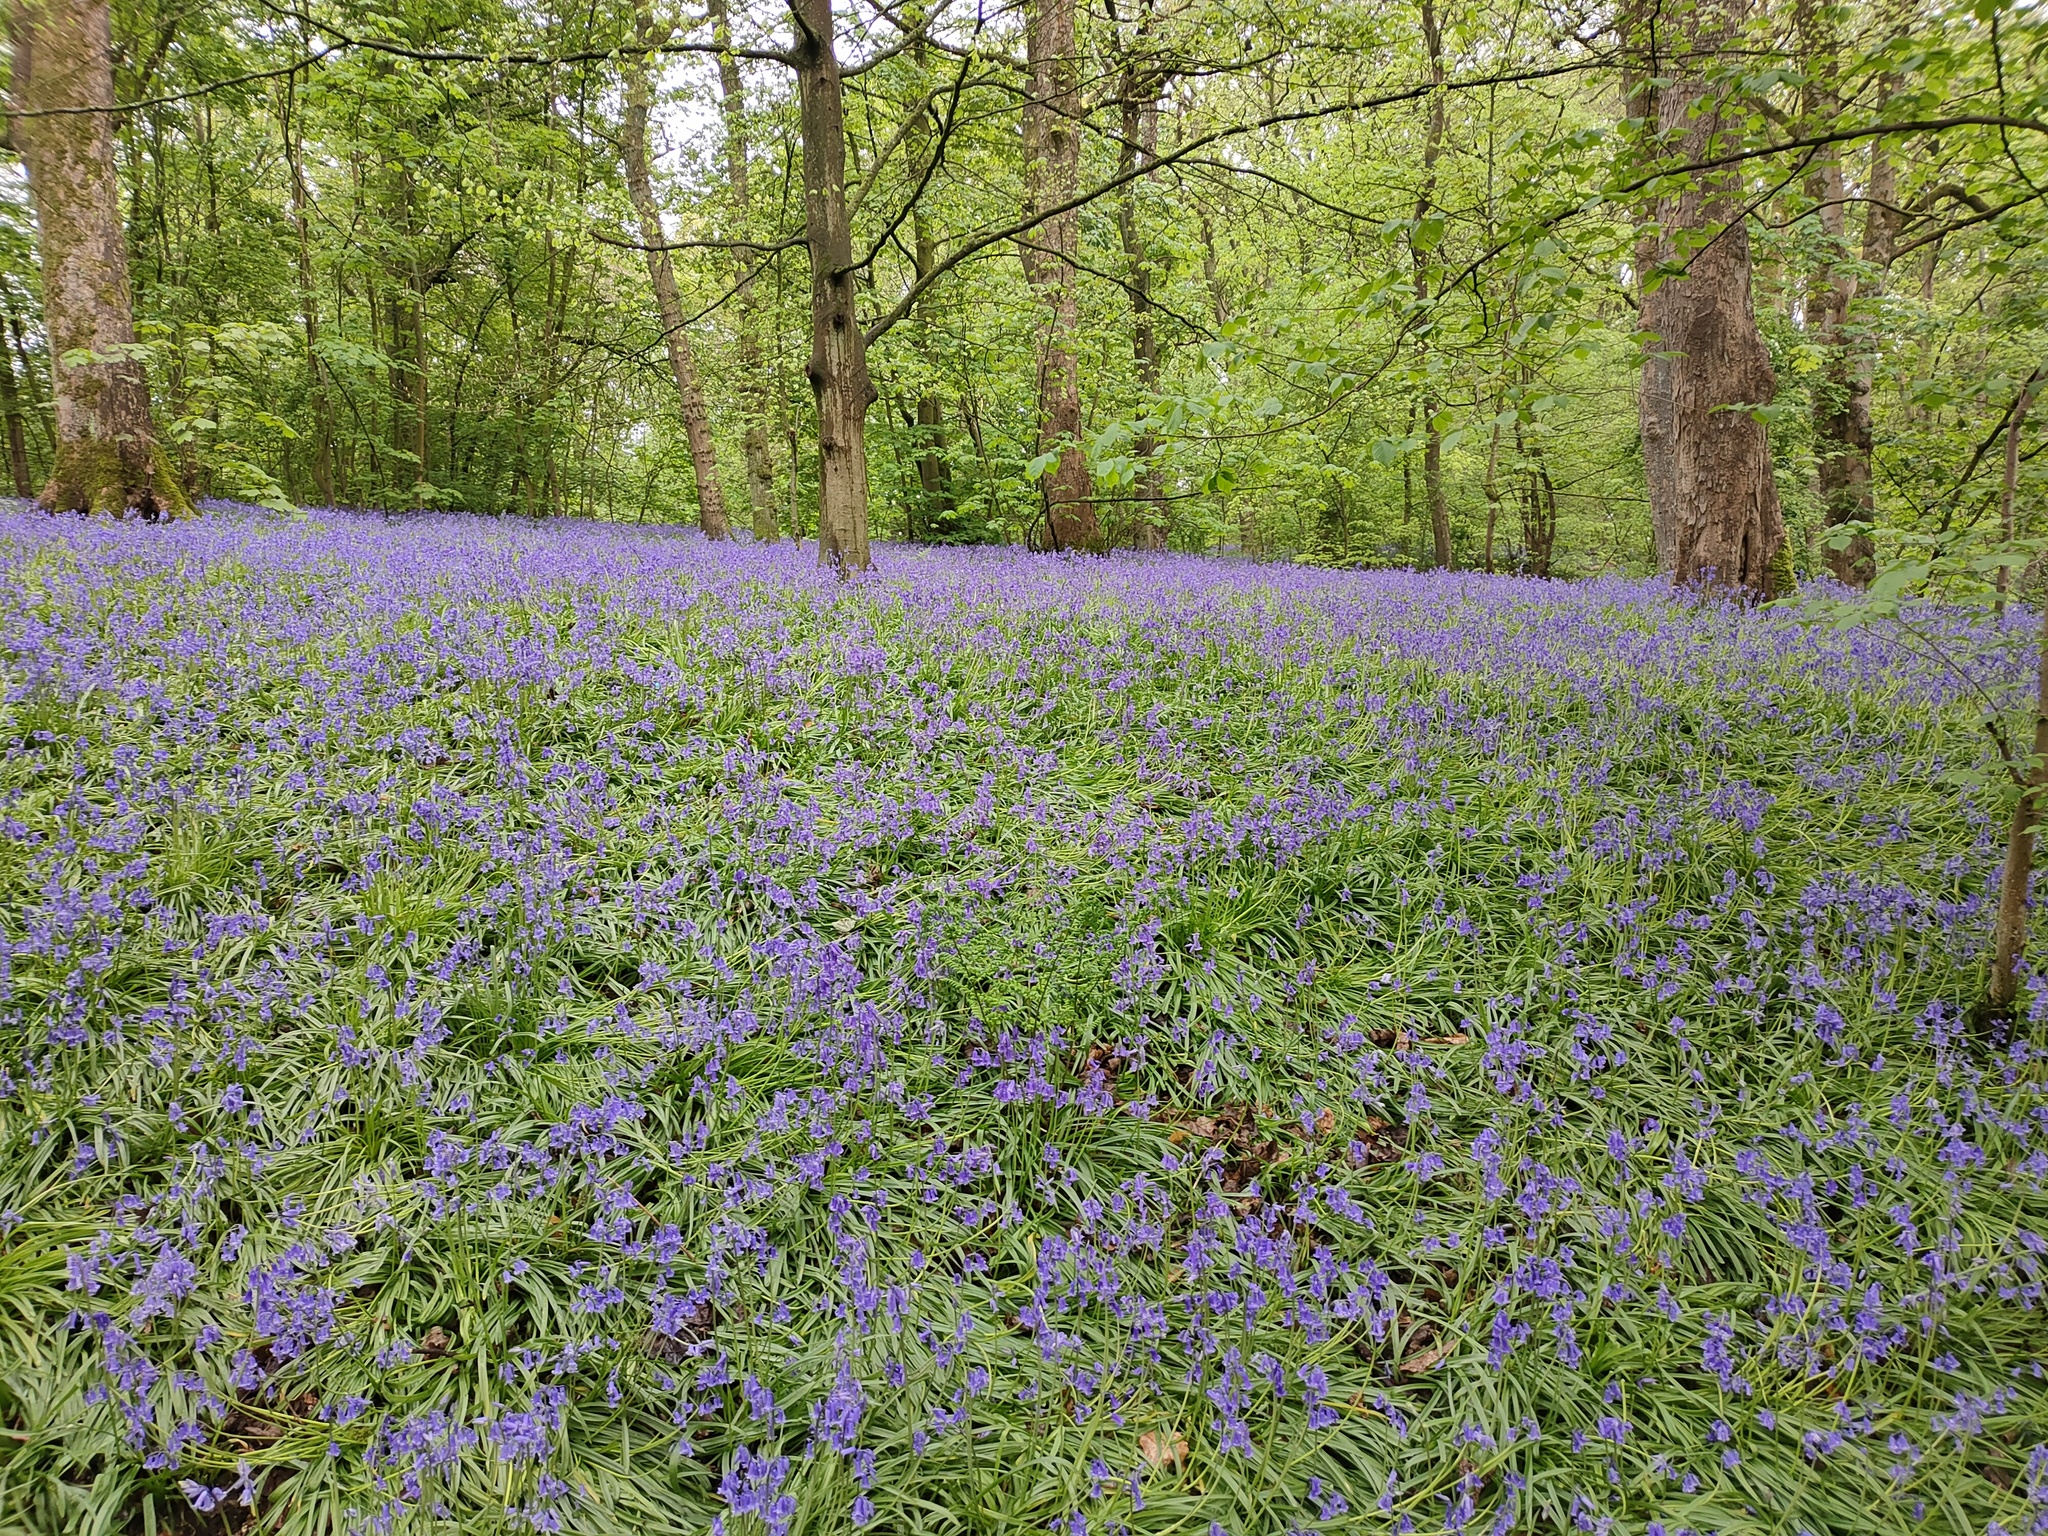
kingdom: Plantae
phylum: Tracheophyta
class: Liliopsida
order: Asparagales
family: Asparagaceae
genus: Hyacinthoides
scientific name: Hyacinthoides non-scripta
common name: Bluebell
